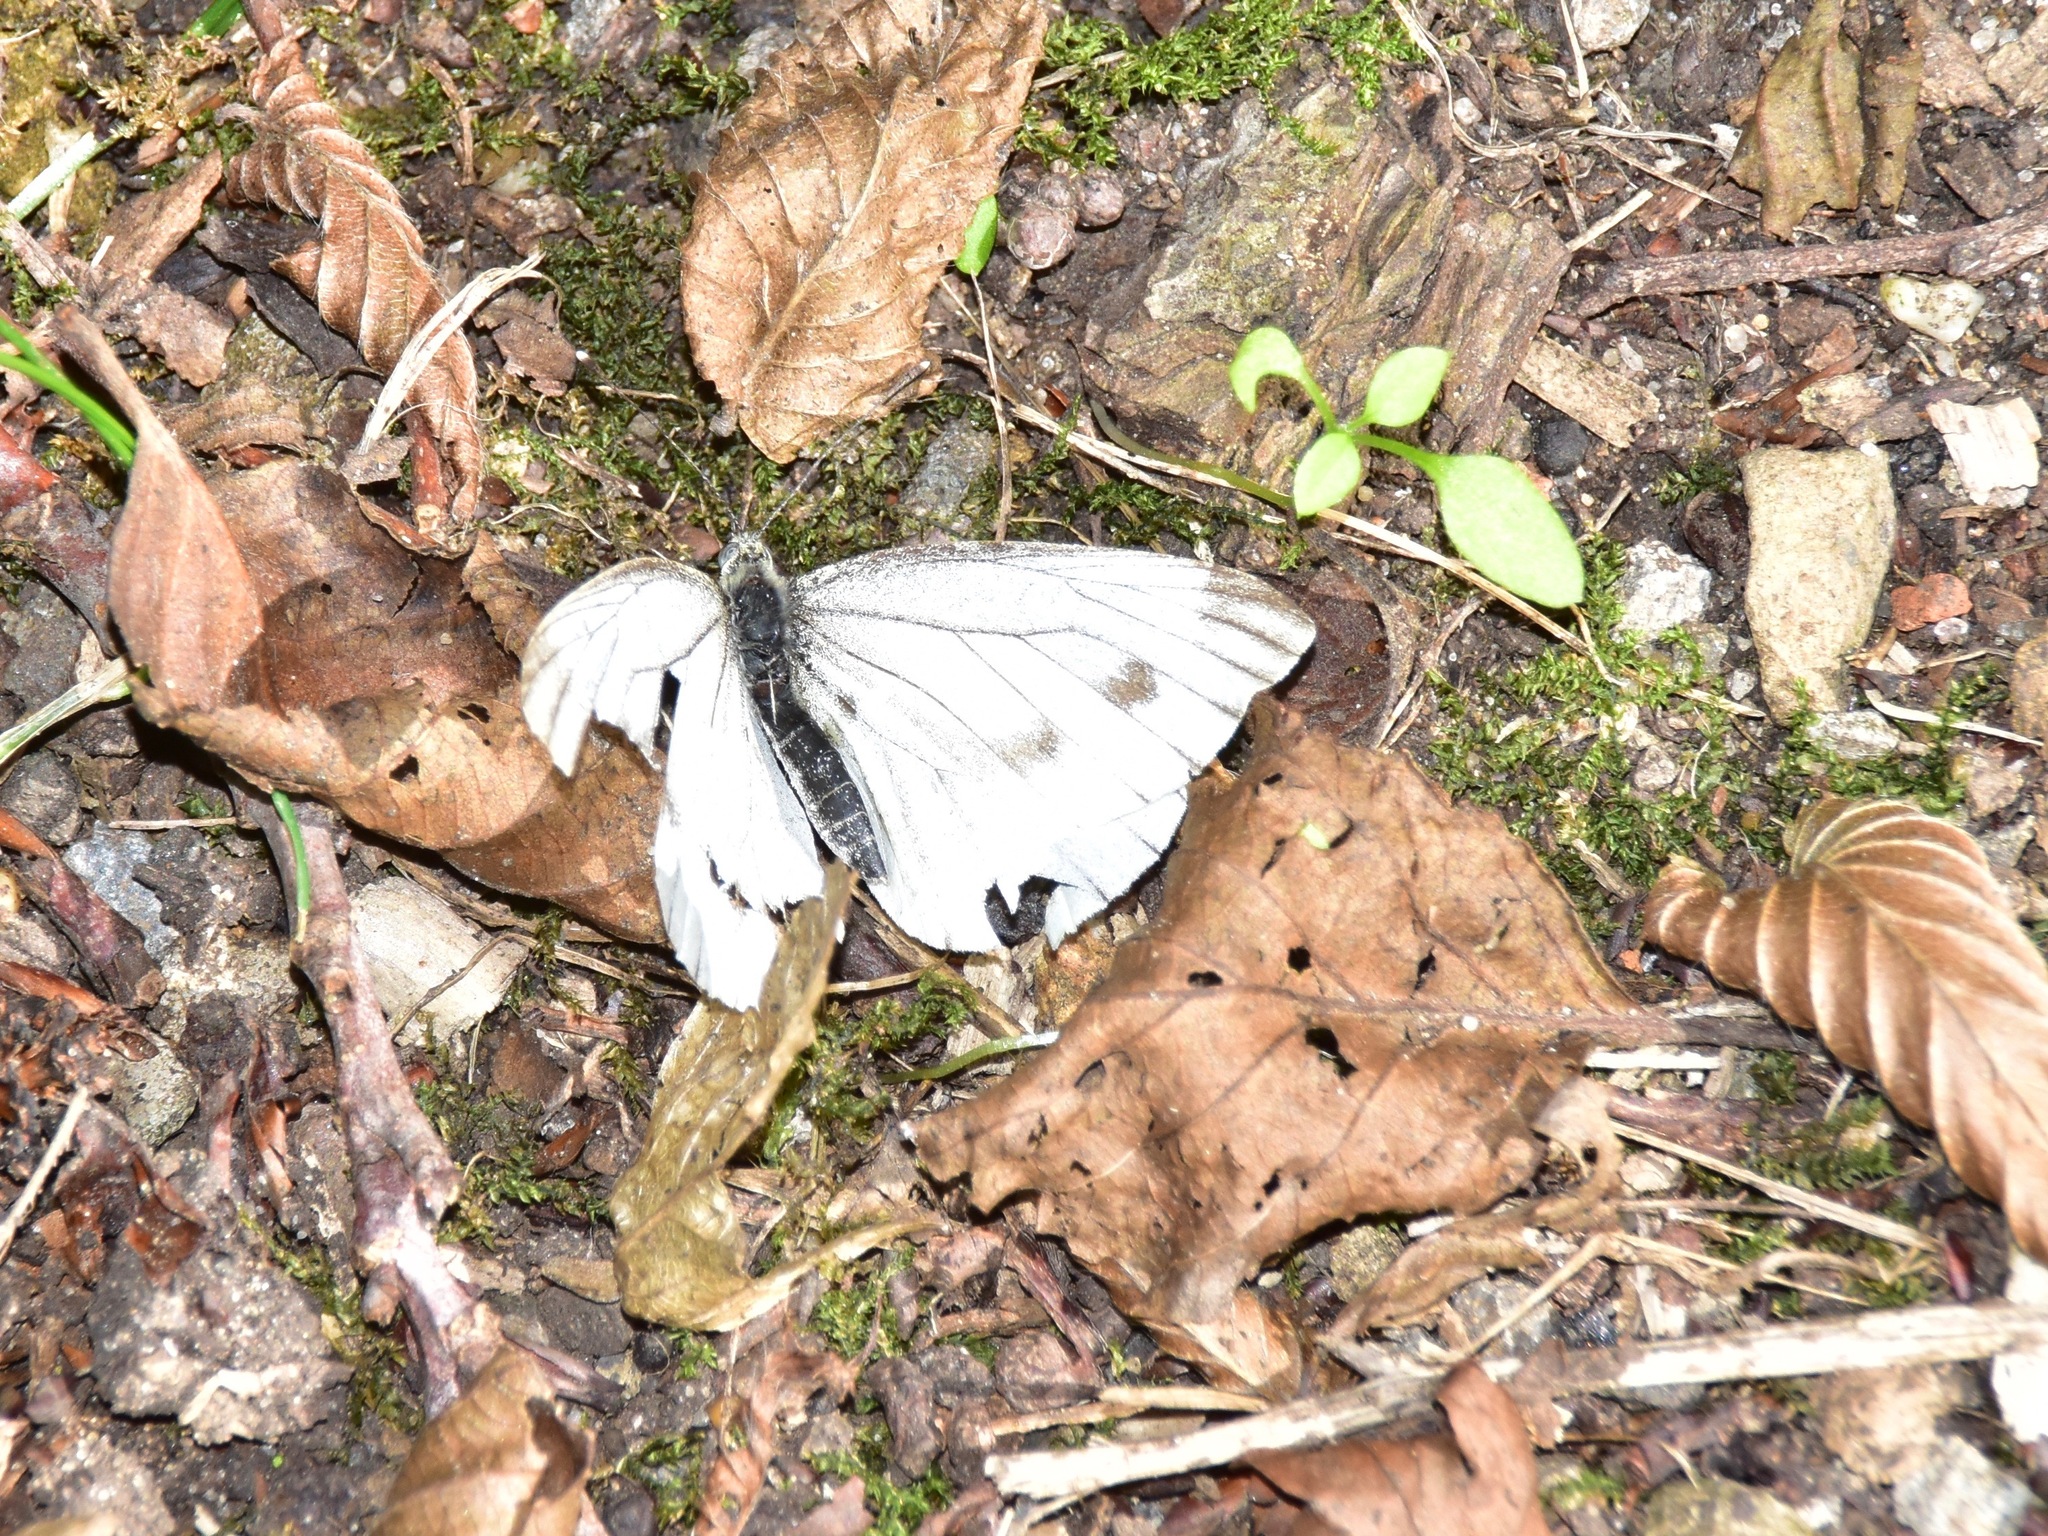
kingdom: Animalia
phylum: Arthropoda
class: Insecta
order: Lepidoptera
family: Pieridae
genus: Pieris
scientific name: Pieris napi
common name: Green-veined white
